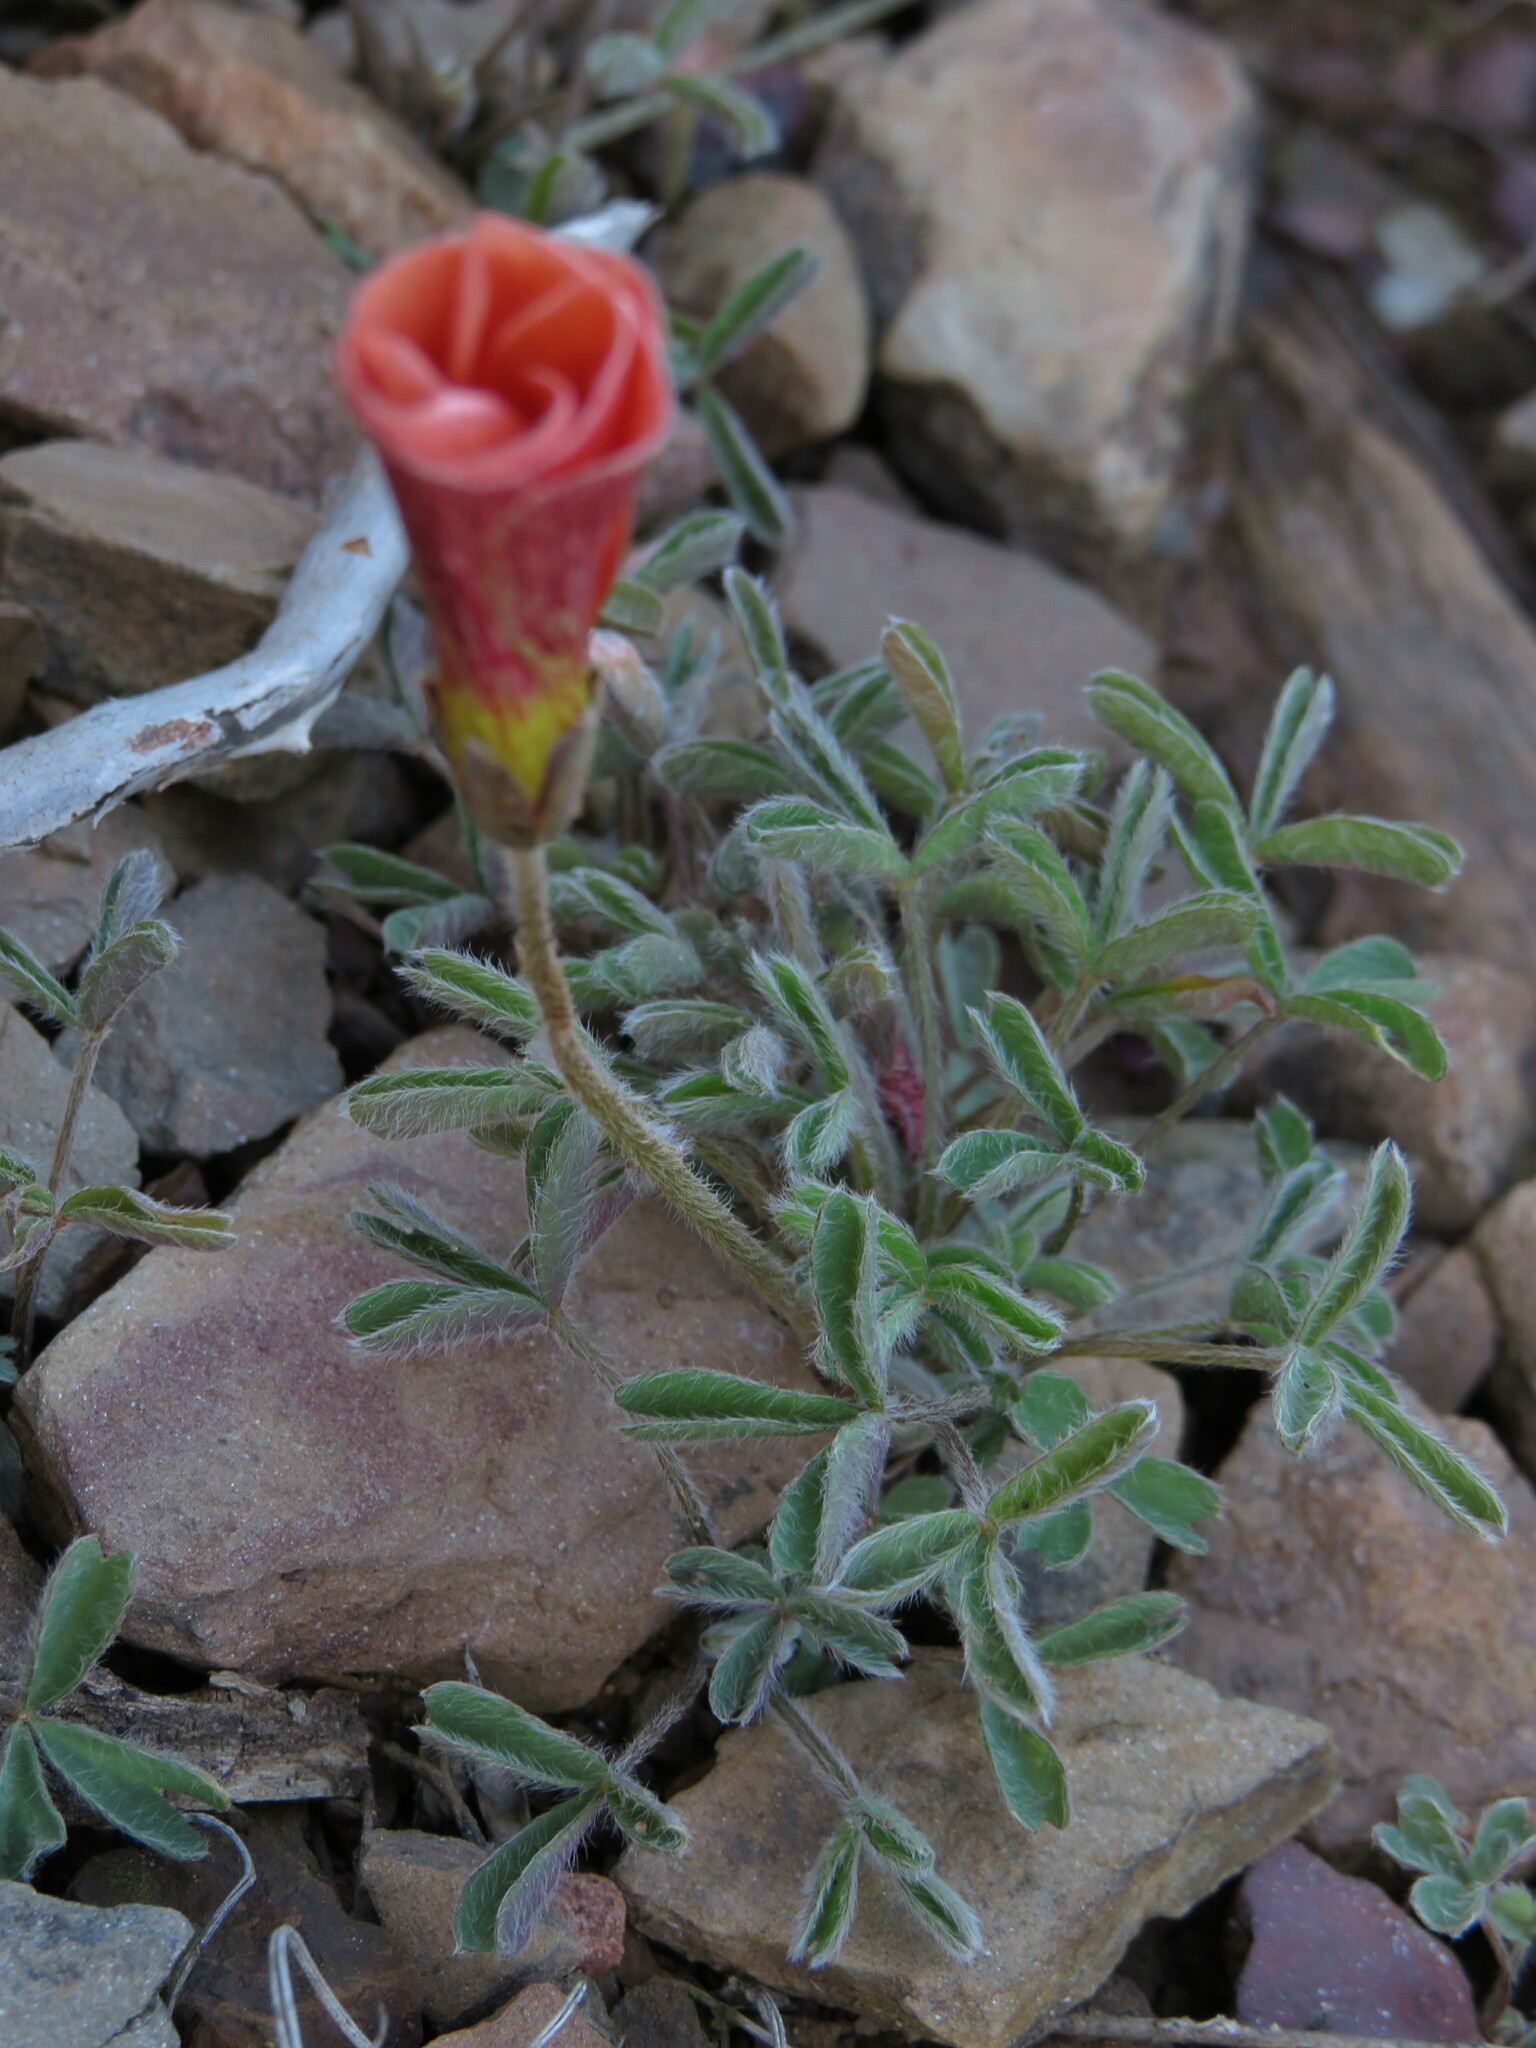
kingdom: Plantae
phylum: Tracheophyta
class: Magnoliopsida
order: Oxalidales
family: Oxalidaceae
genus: Oxalis
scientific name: Oxalis obtusa
